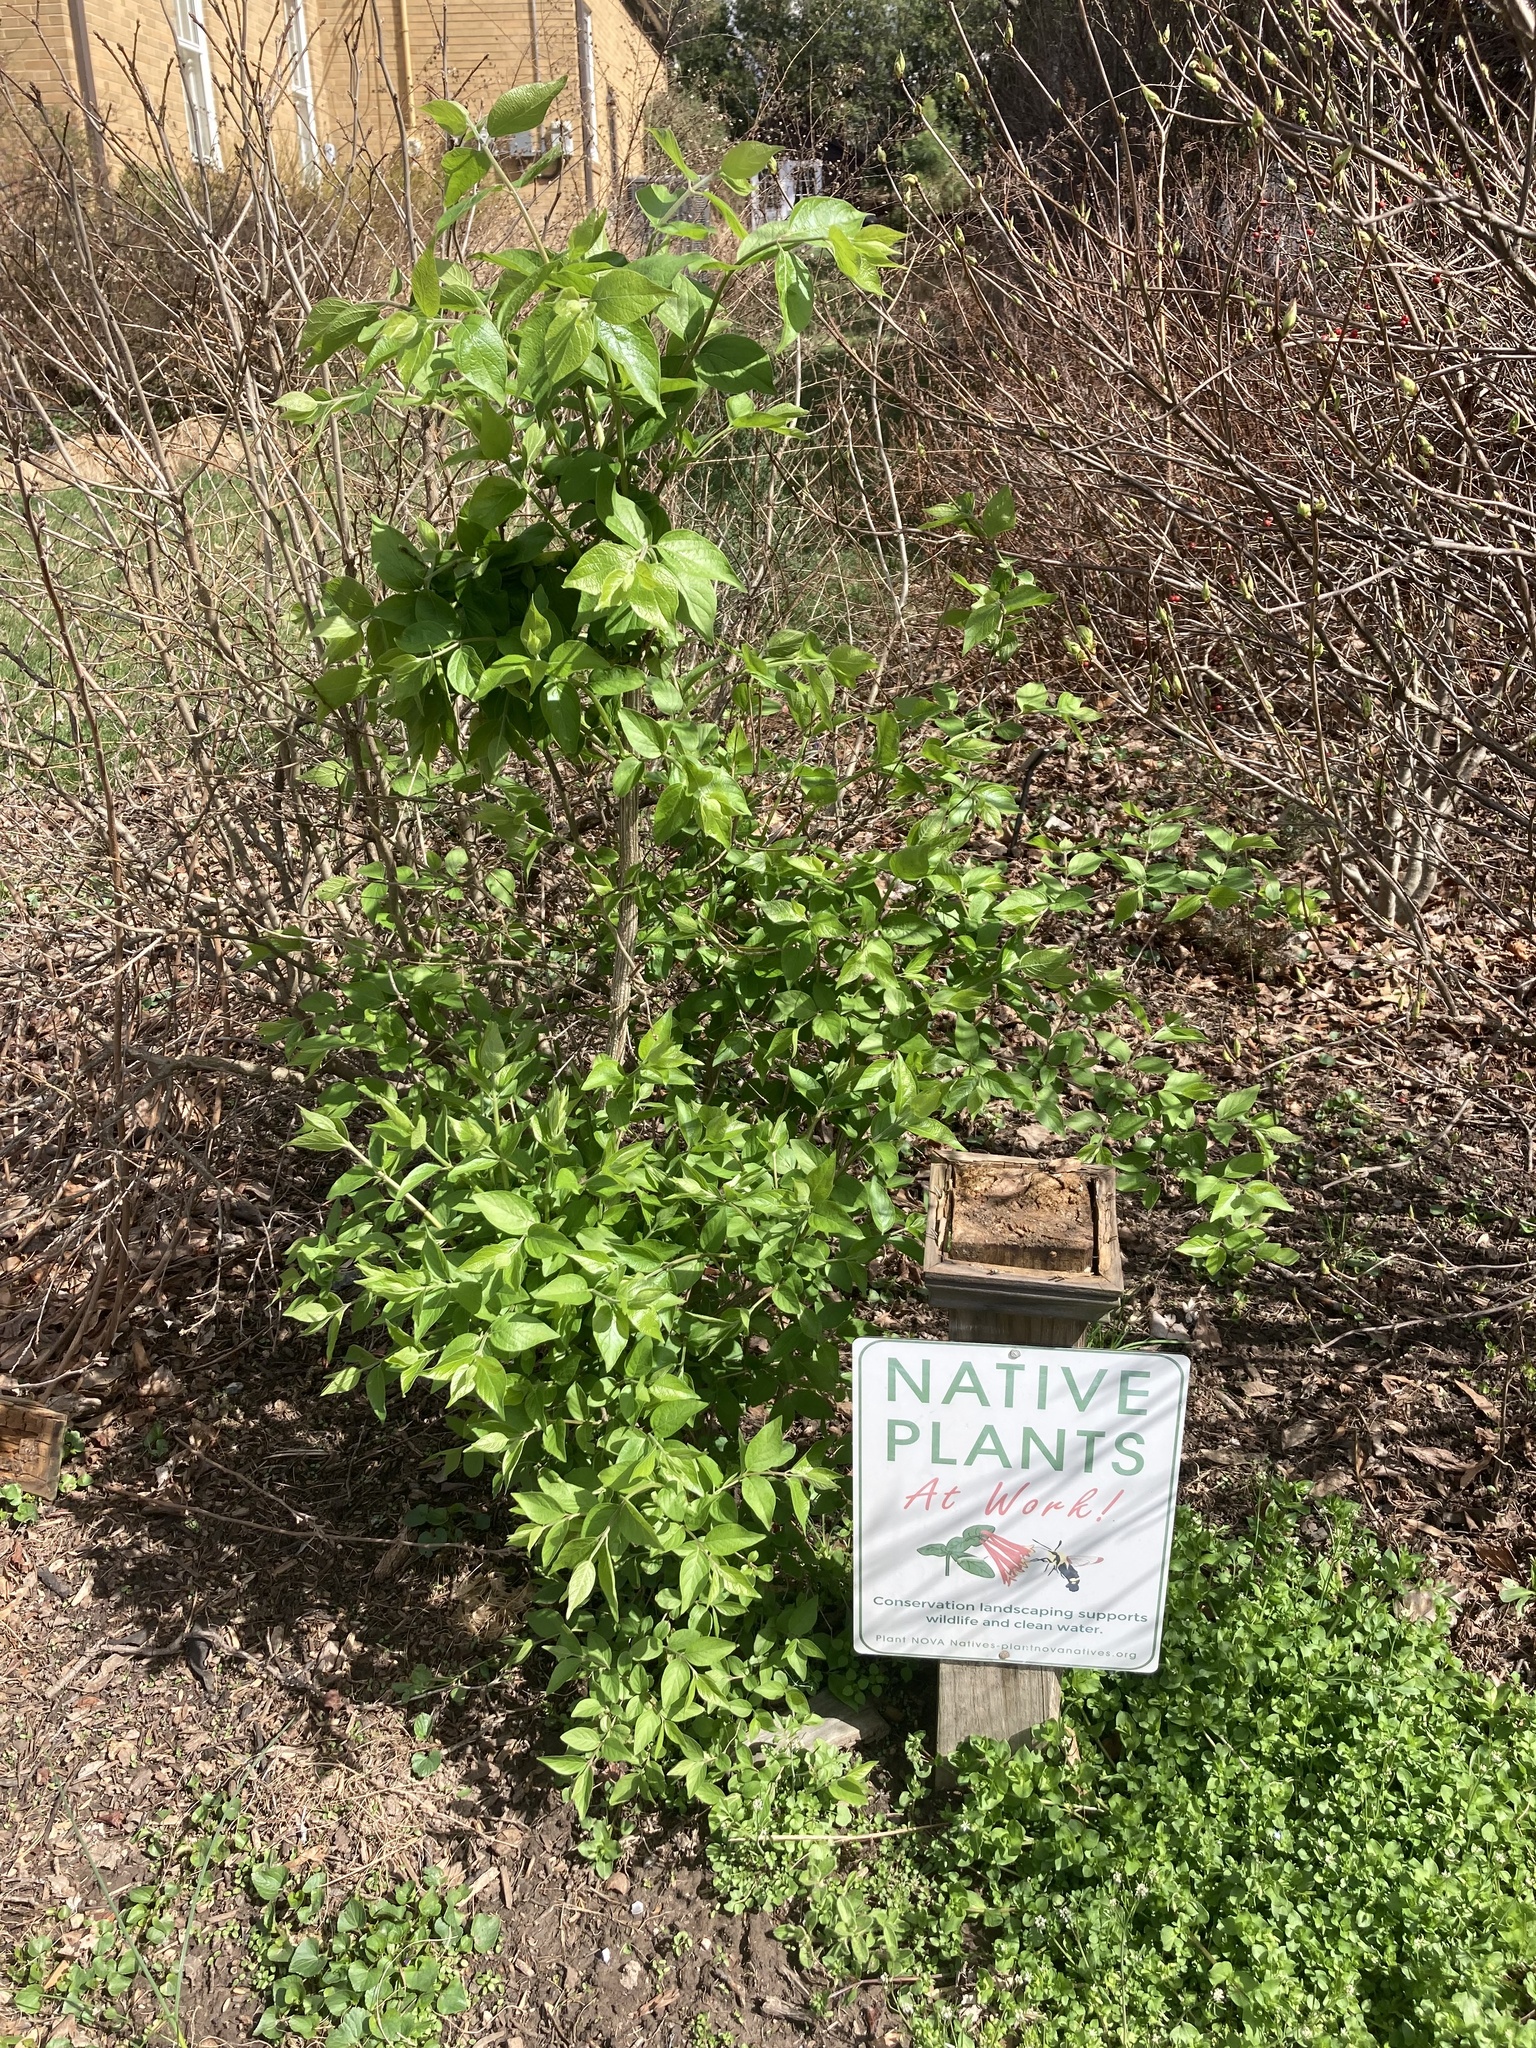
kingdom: Plantae
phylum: Tracheophyta
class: Magnoliopsida
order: Dipsacales
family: Caprifoliaceae
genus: Lonicera
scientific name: Lonicera maackii
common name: Amur honeysuckle
